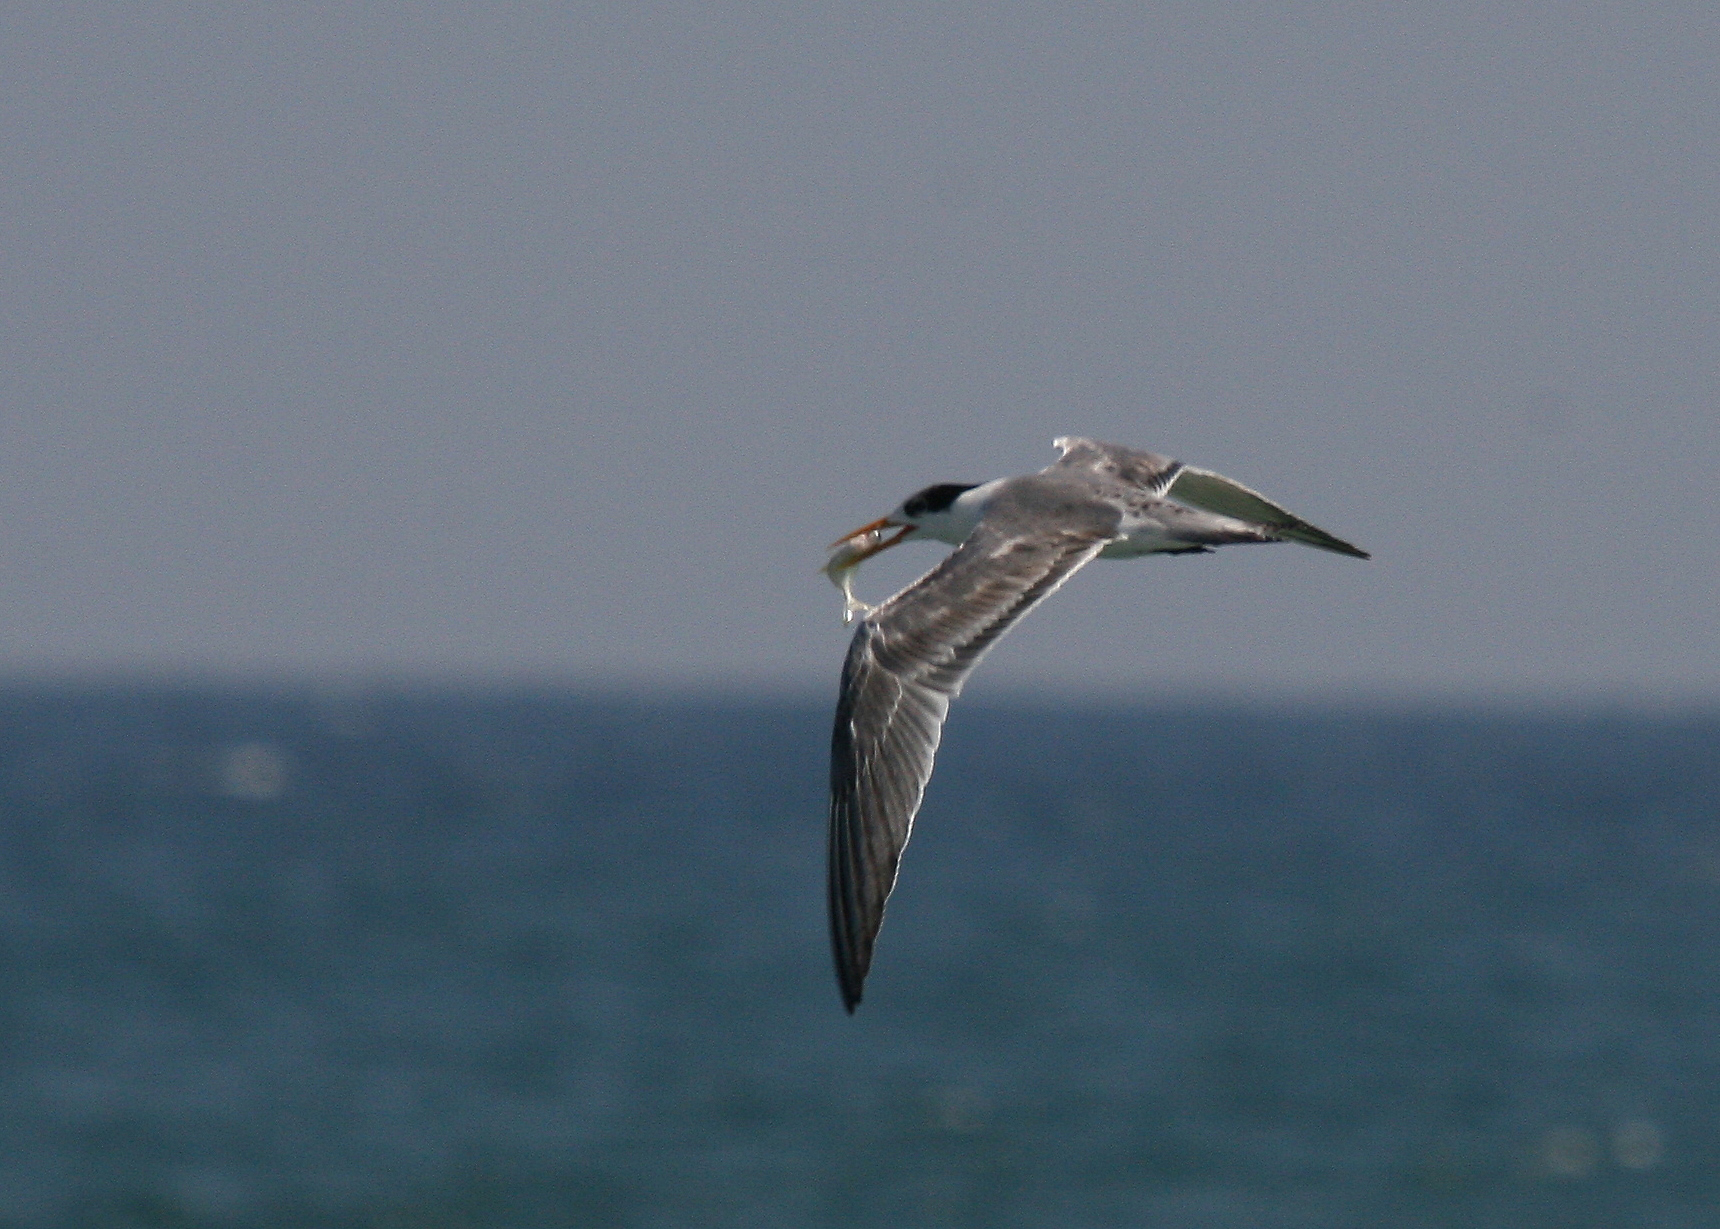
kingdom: Animalia
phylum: Chordata
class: Aves
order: Charadriiformes
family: Laridae
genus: Thalasseus
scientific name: Thalasseus bengalensis
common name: Lesser crested tern
